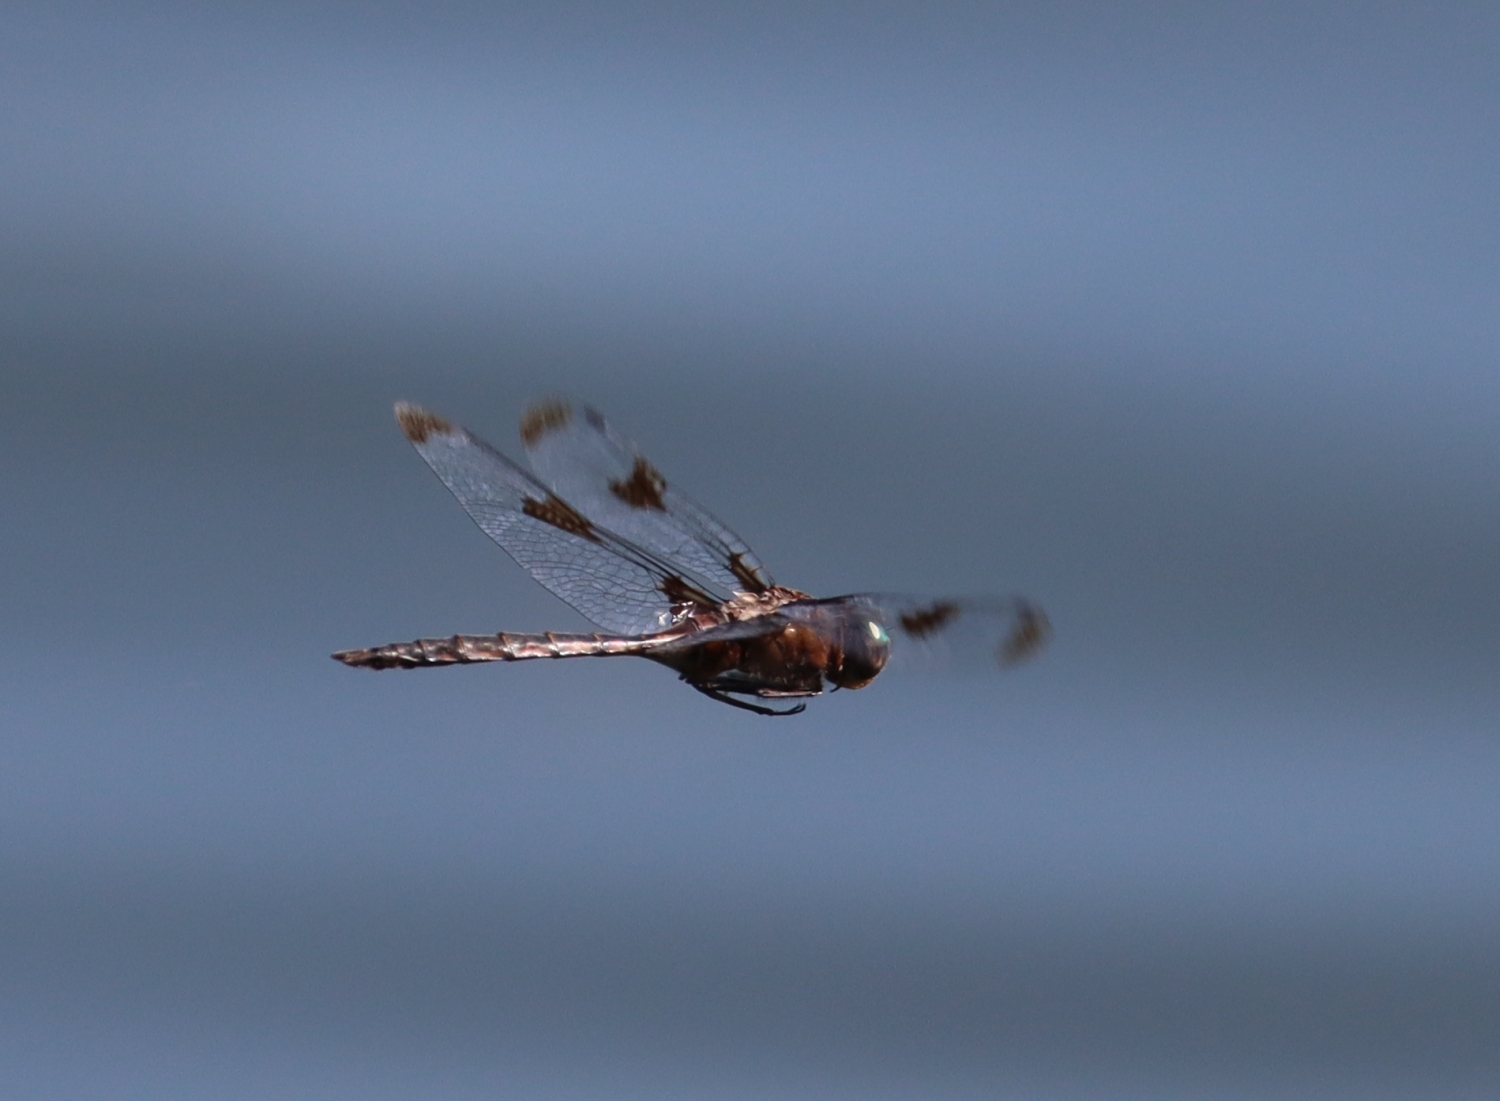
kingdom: Animalia
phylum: Arthropoda
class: Insecta
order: Odonata
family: Corduliidae
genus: Epitheca
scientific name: Epitheca princeps
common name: Prince baskettail
